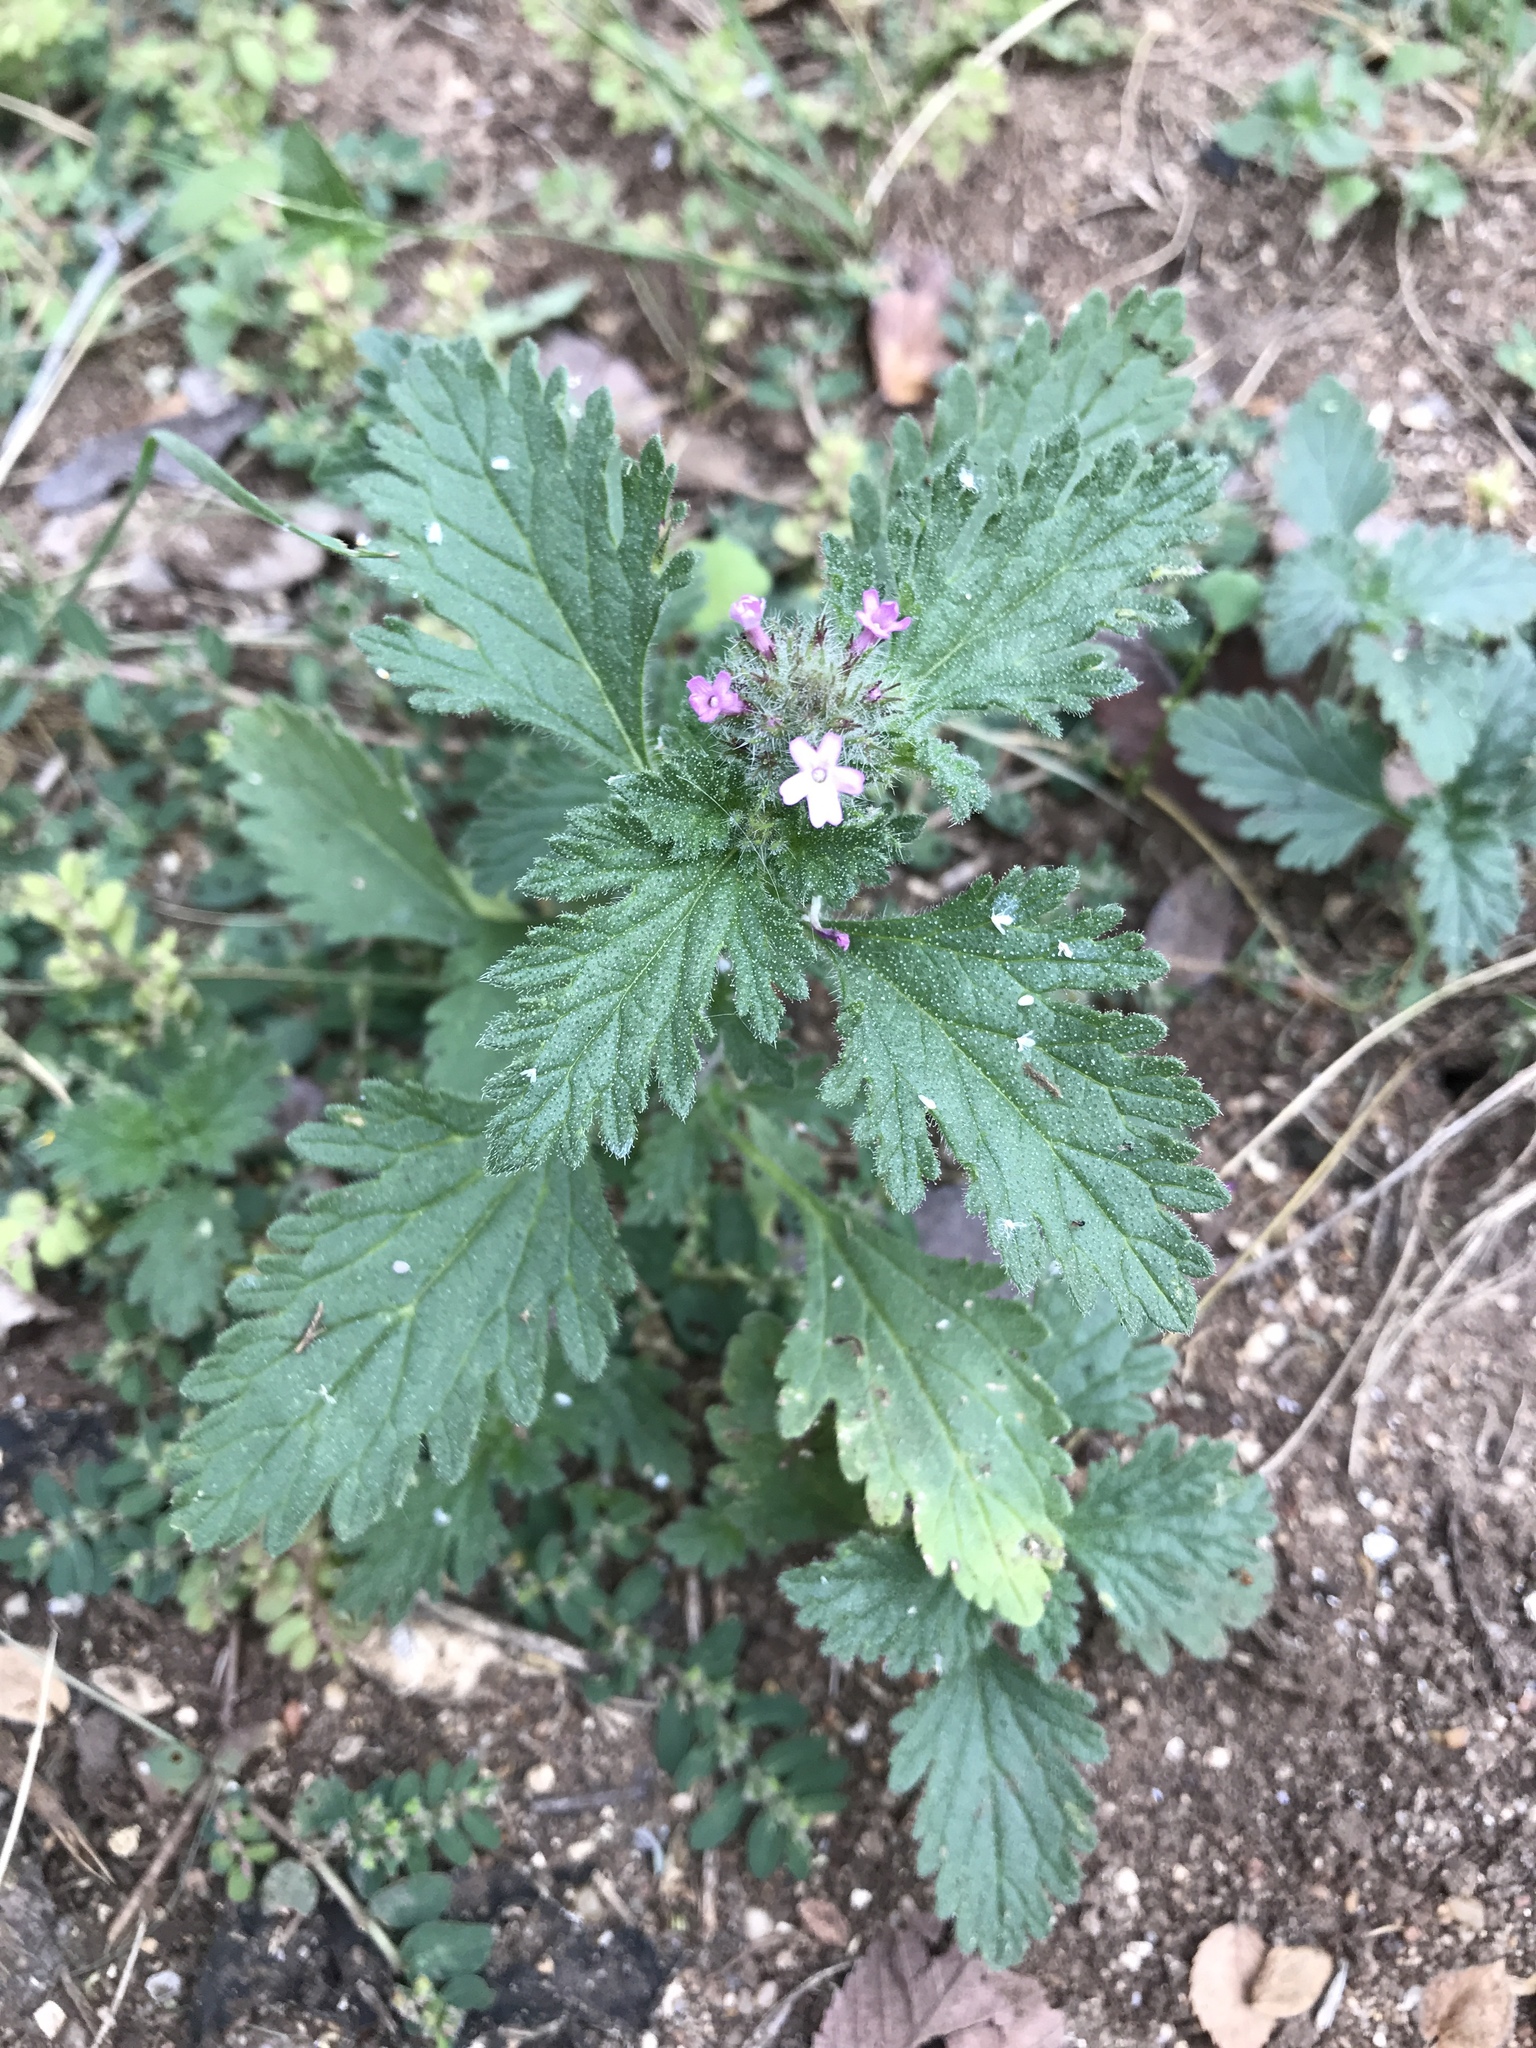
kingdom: Plantae
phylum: Tracheophyta
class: Magnoliopsida
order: Lamiales
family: Verbenaceae
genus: Verbena
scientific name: Verbena pumila
